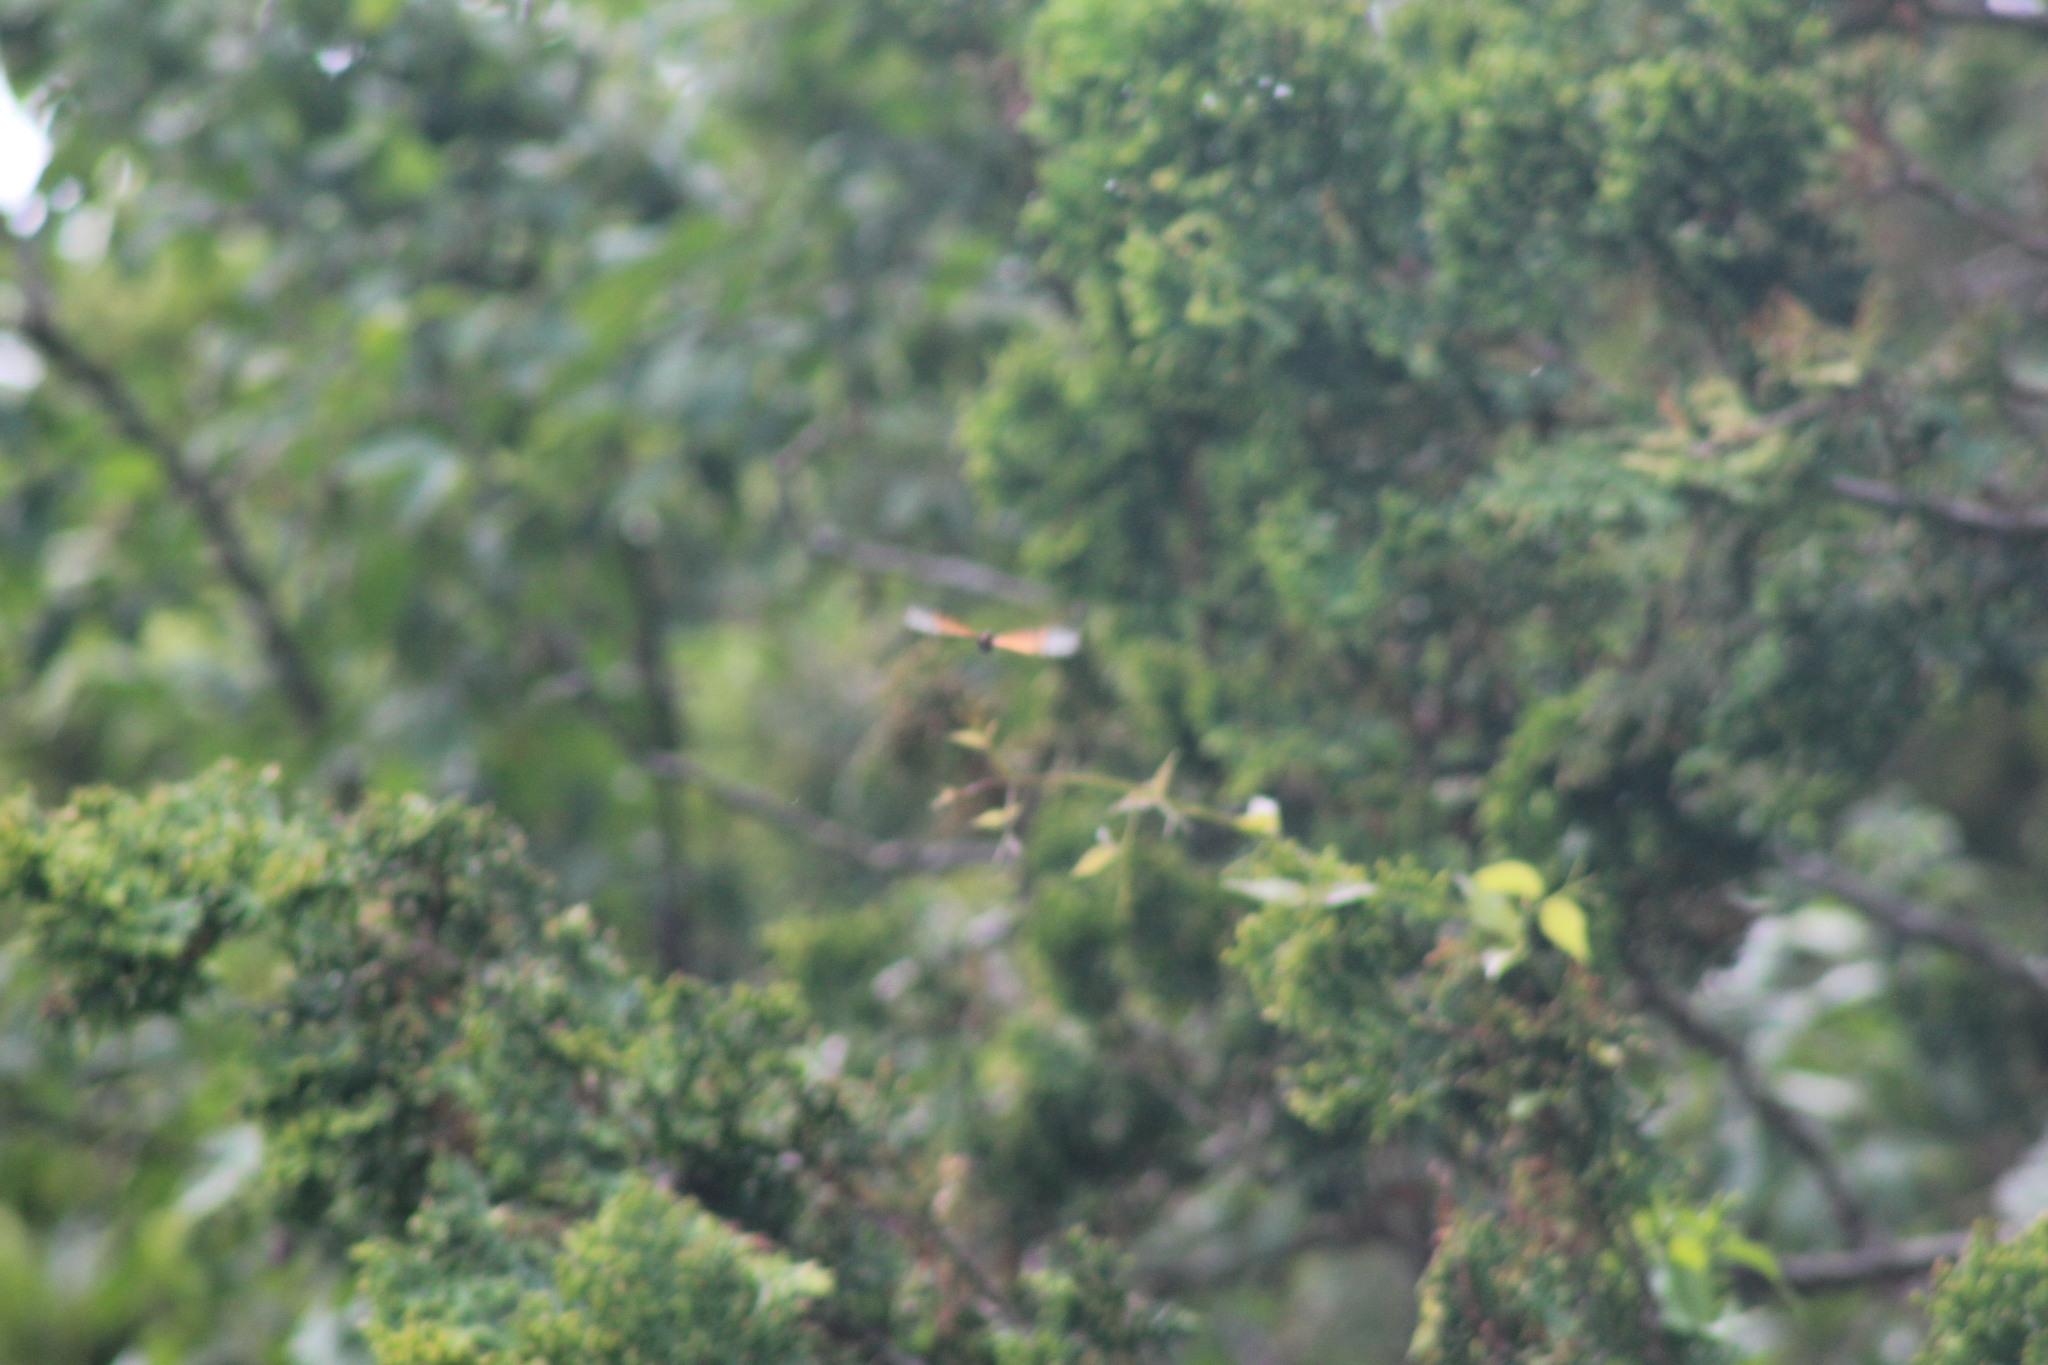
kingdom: Animalia
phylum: Arthropoda
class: Insecta
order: Lepidoptera
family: Nymphalidae
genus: Acraea
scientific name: Acraea horta
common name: Garden acraea
